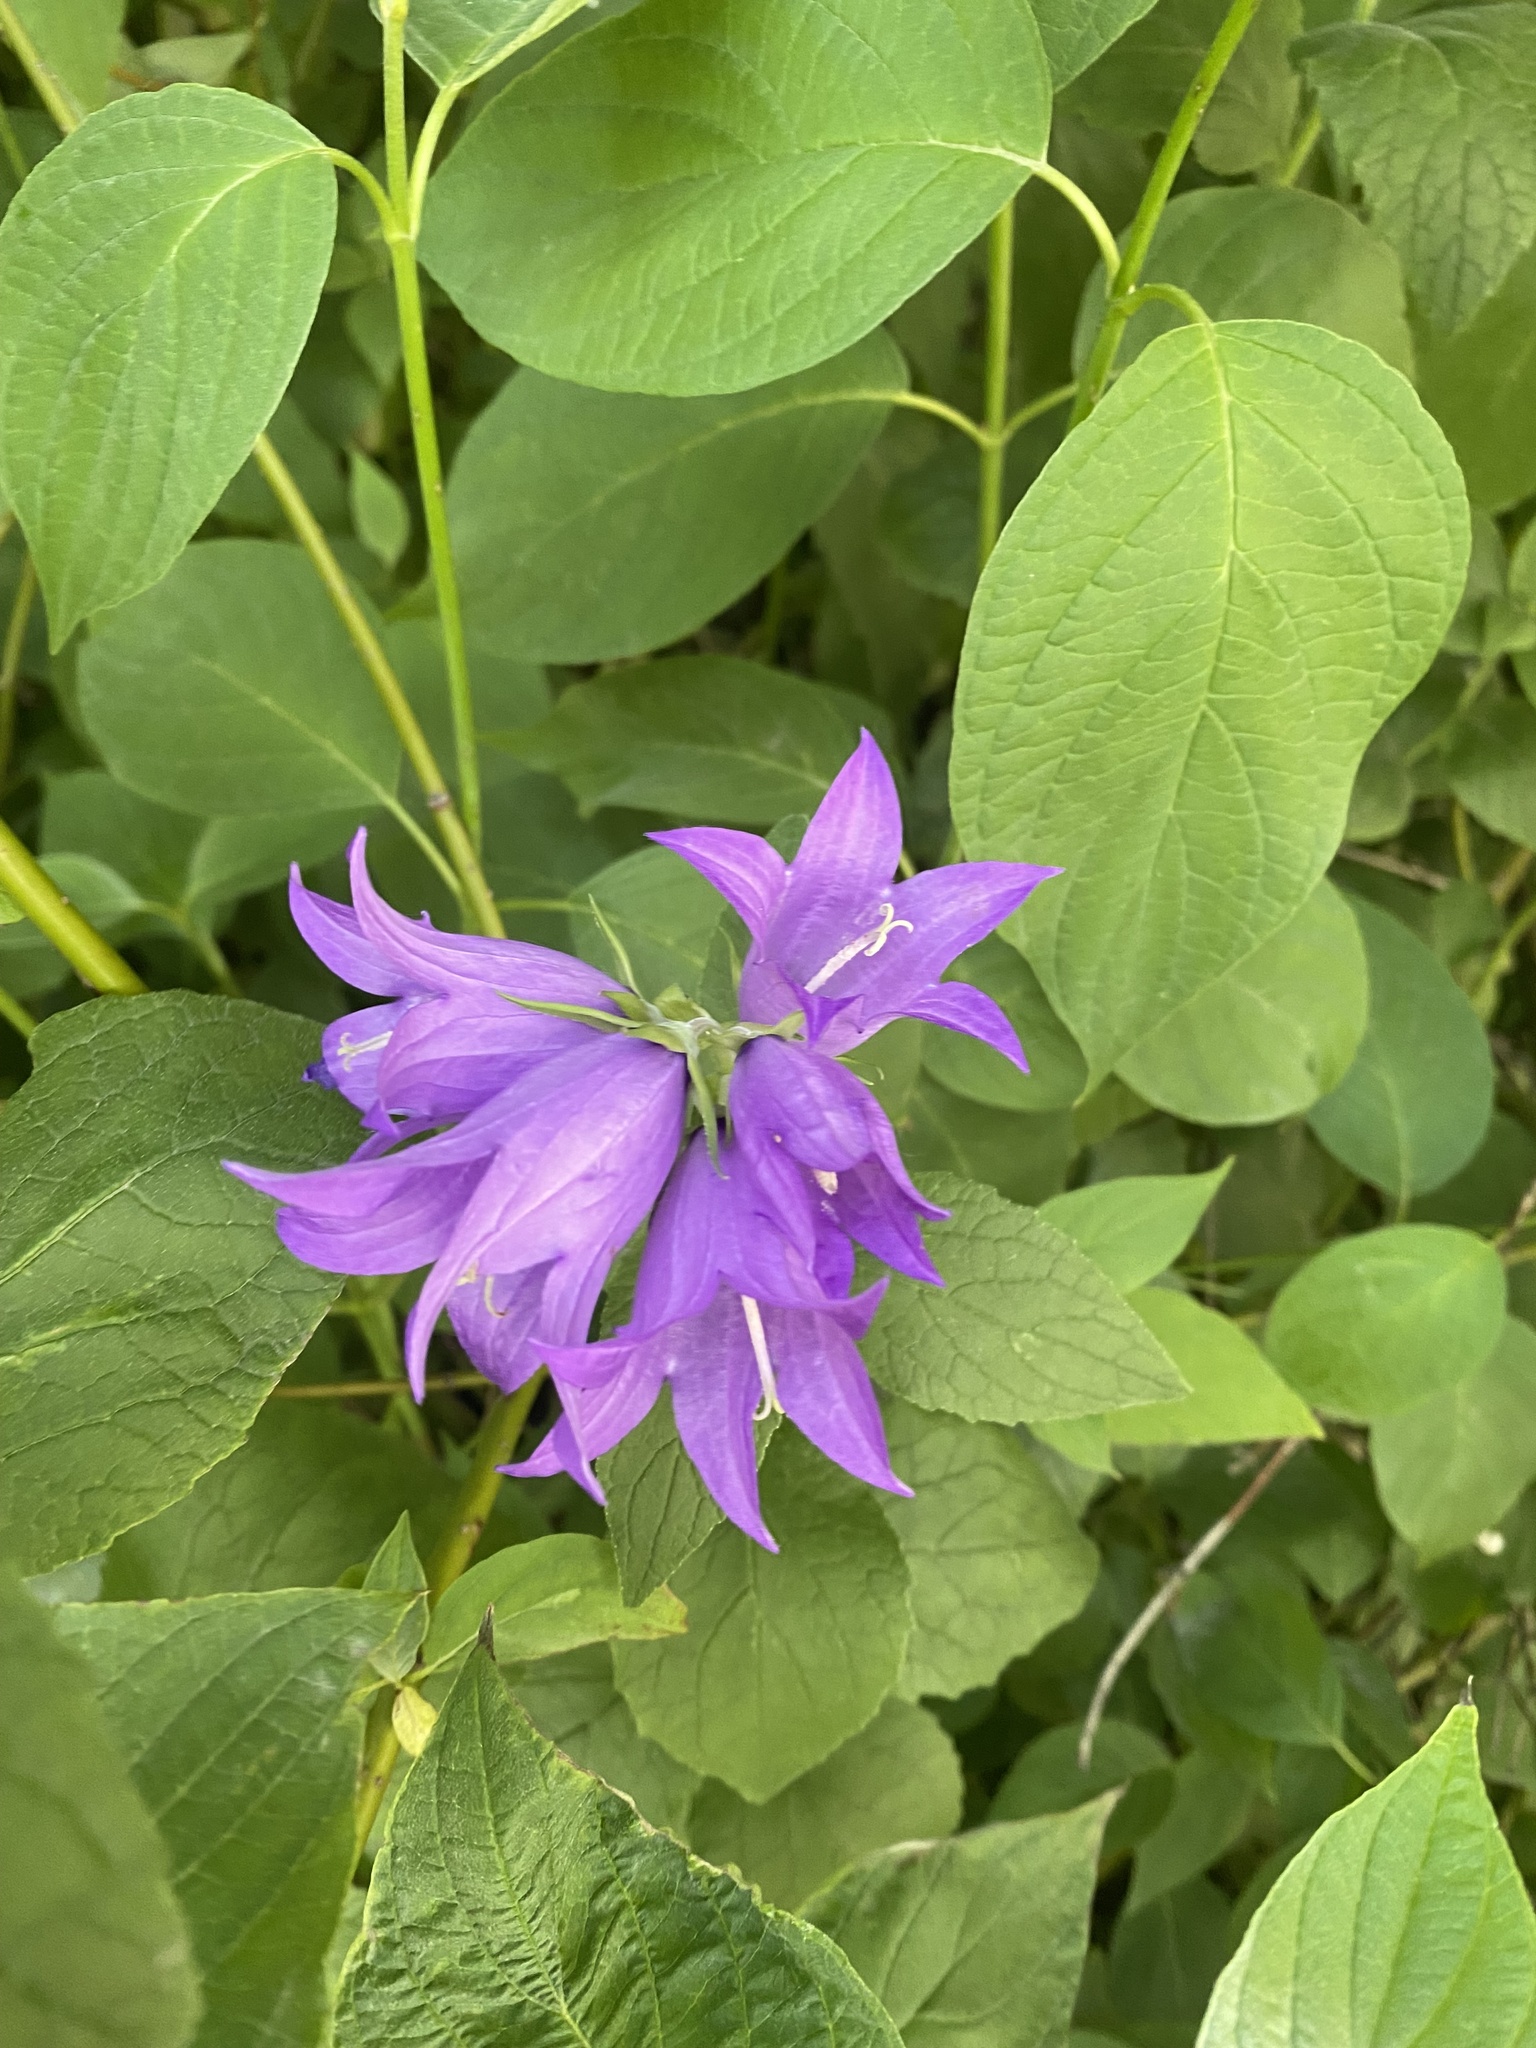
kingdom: Plantae
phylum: Tracheophyta
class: Magnoliopsida
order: Asterales
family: Campanulaceae
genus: Campanula
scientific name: Campanula latifolia
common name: Giant bellflower
